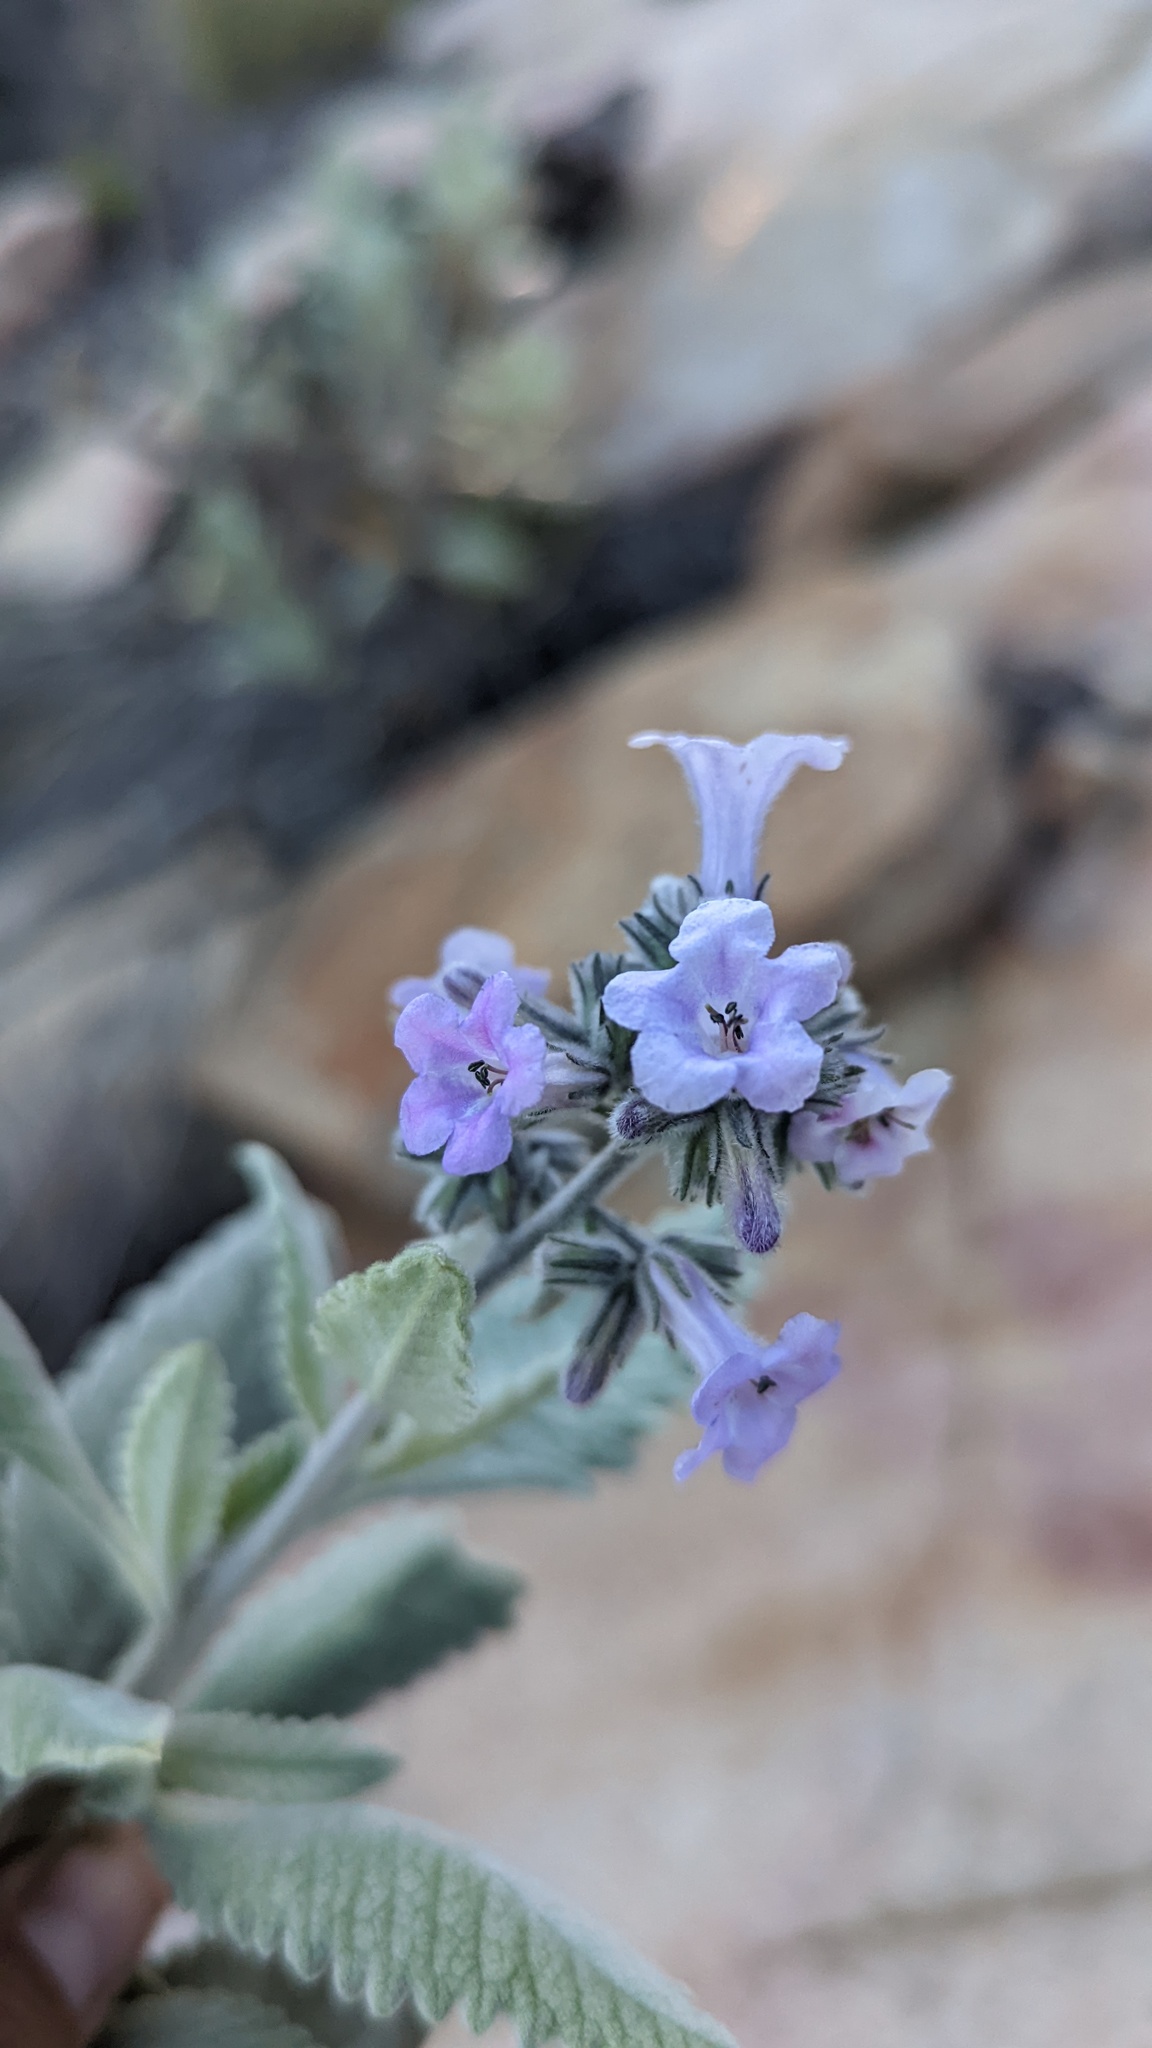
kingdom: Plantae
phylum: Tracheophyta
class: Magnoliopsida
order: Boraginales
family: Namaceae
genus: Eriodictyon
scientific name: Eriodictyon crassifolium
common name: Thick-leaf yerba-santa
